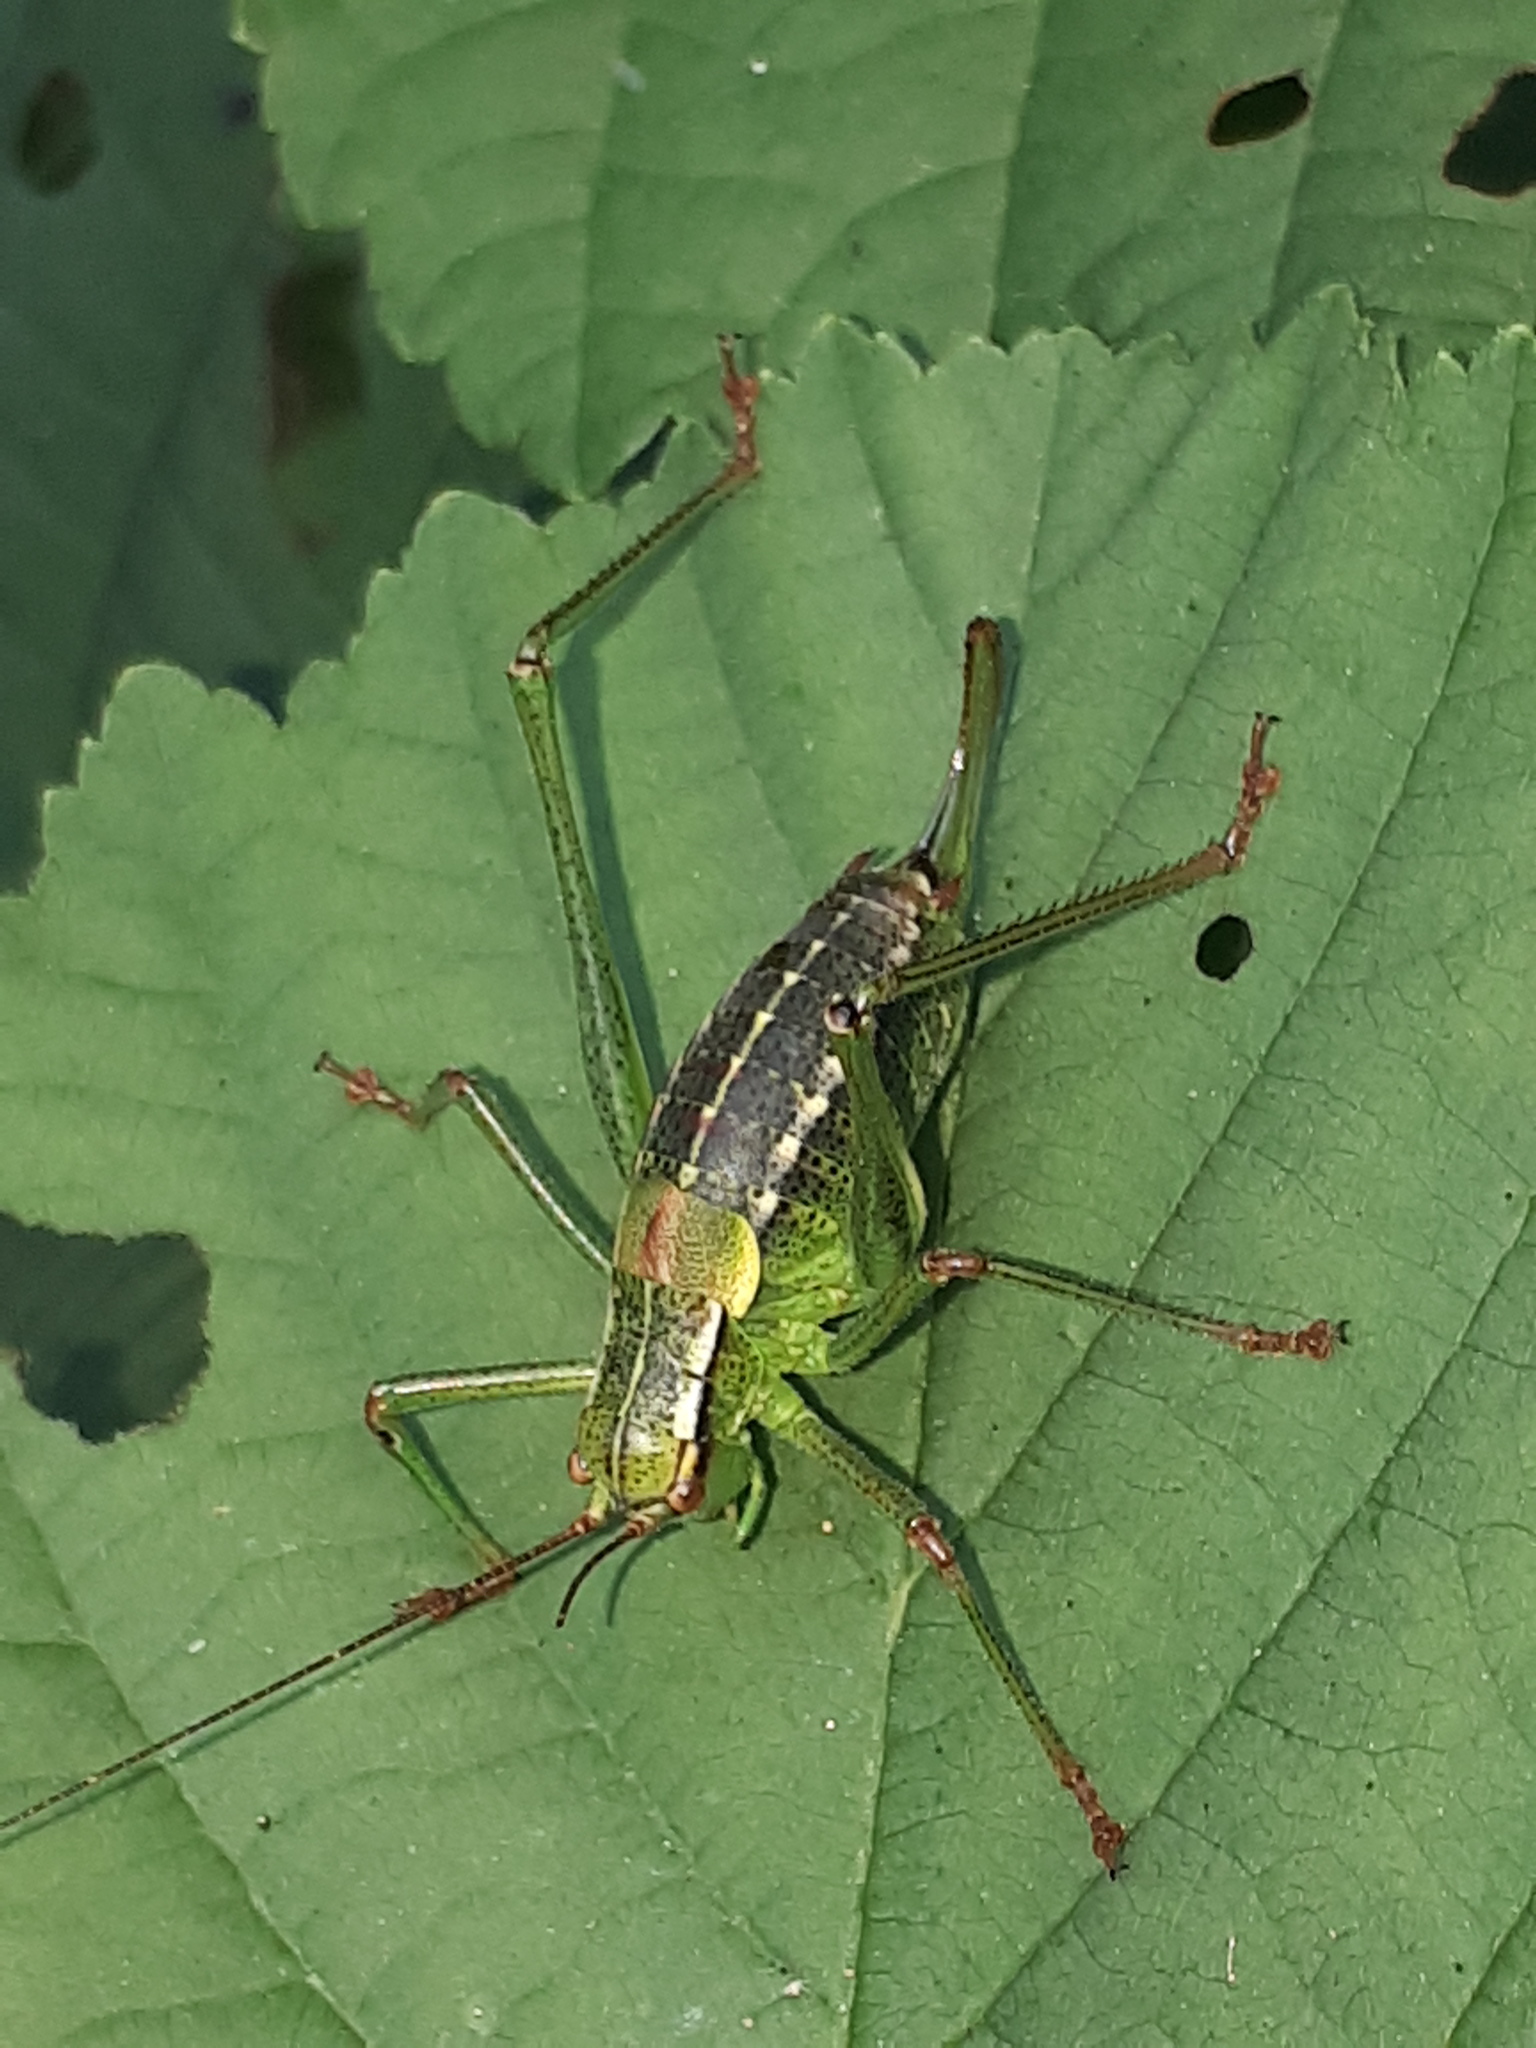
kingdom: Animalia
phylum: Arthropoda
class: Insecta
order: Orthoptera
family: Tettigoniidae
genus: Barbitistes
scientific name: Barbitistes constrictus
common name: Eastern saw-tailed bush cricket
